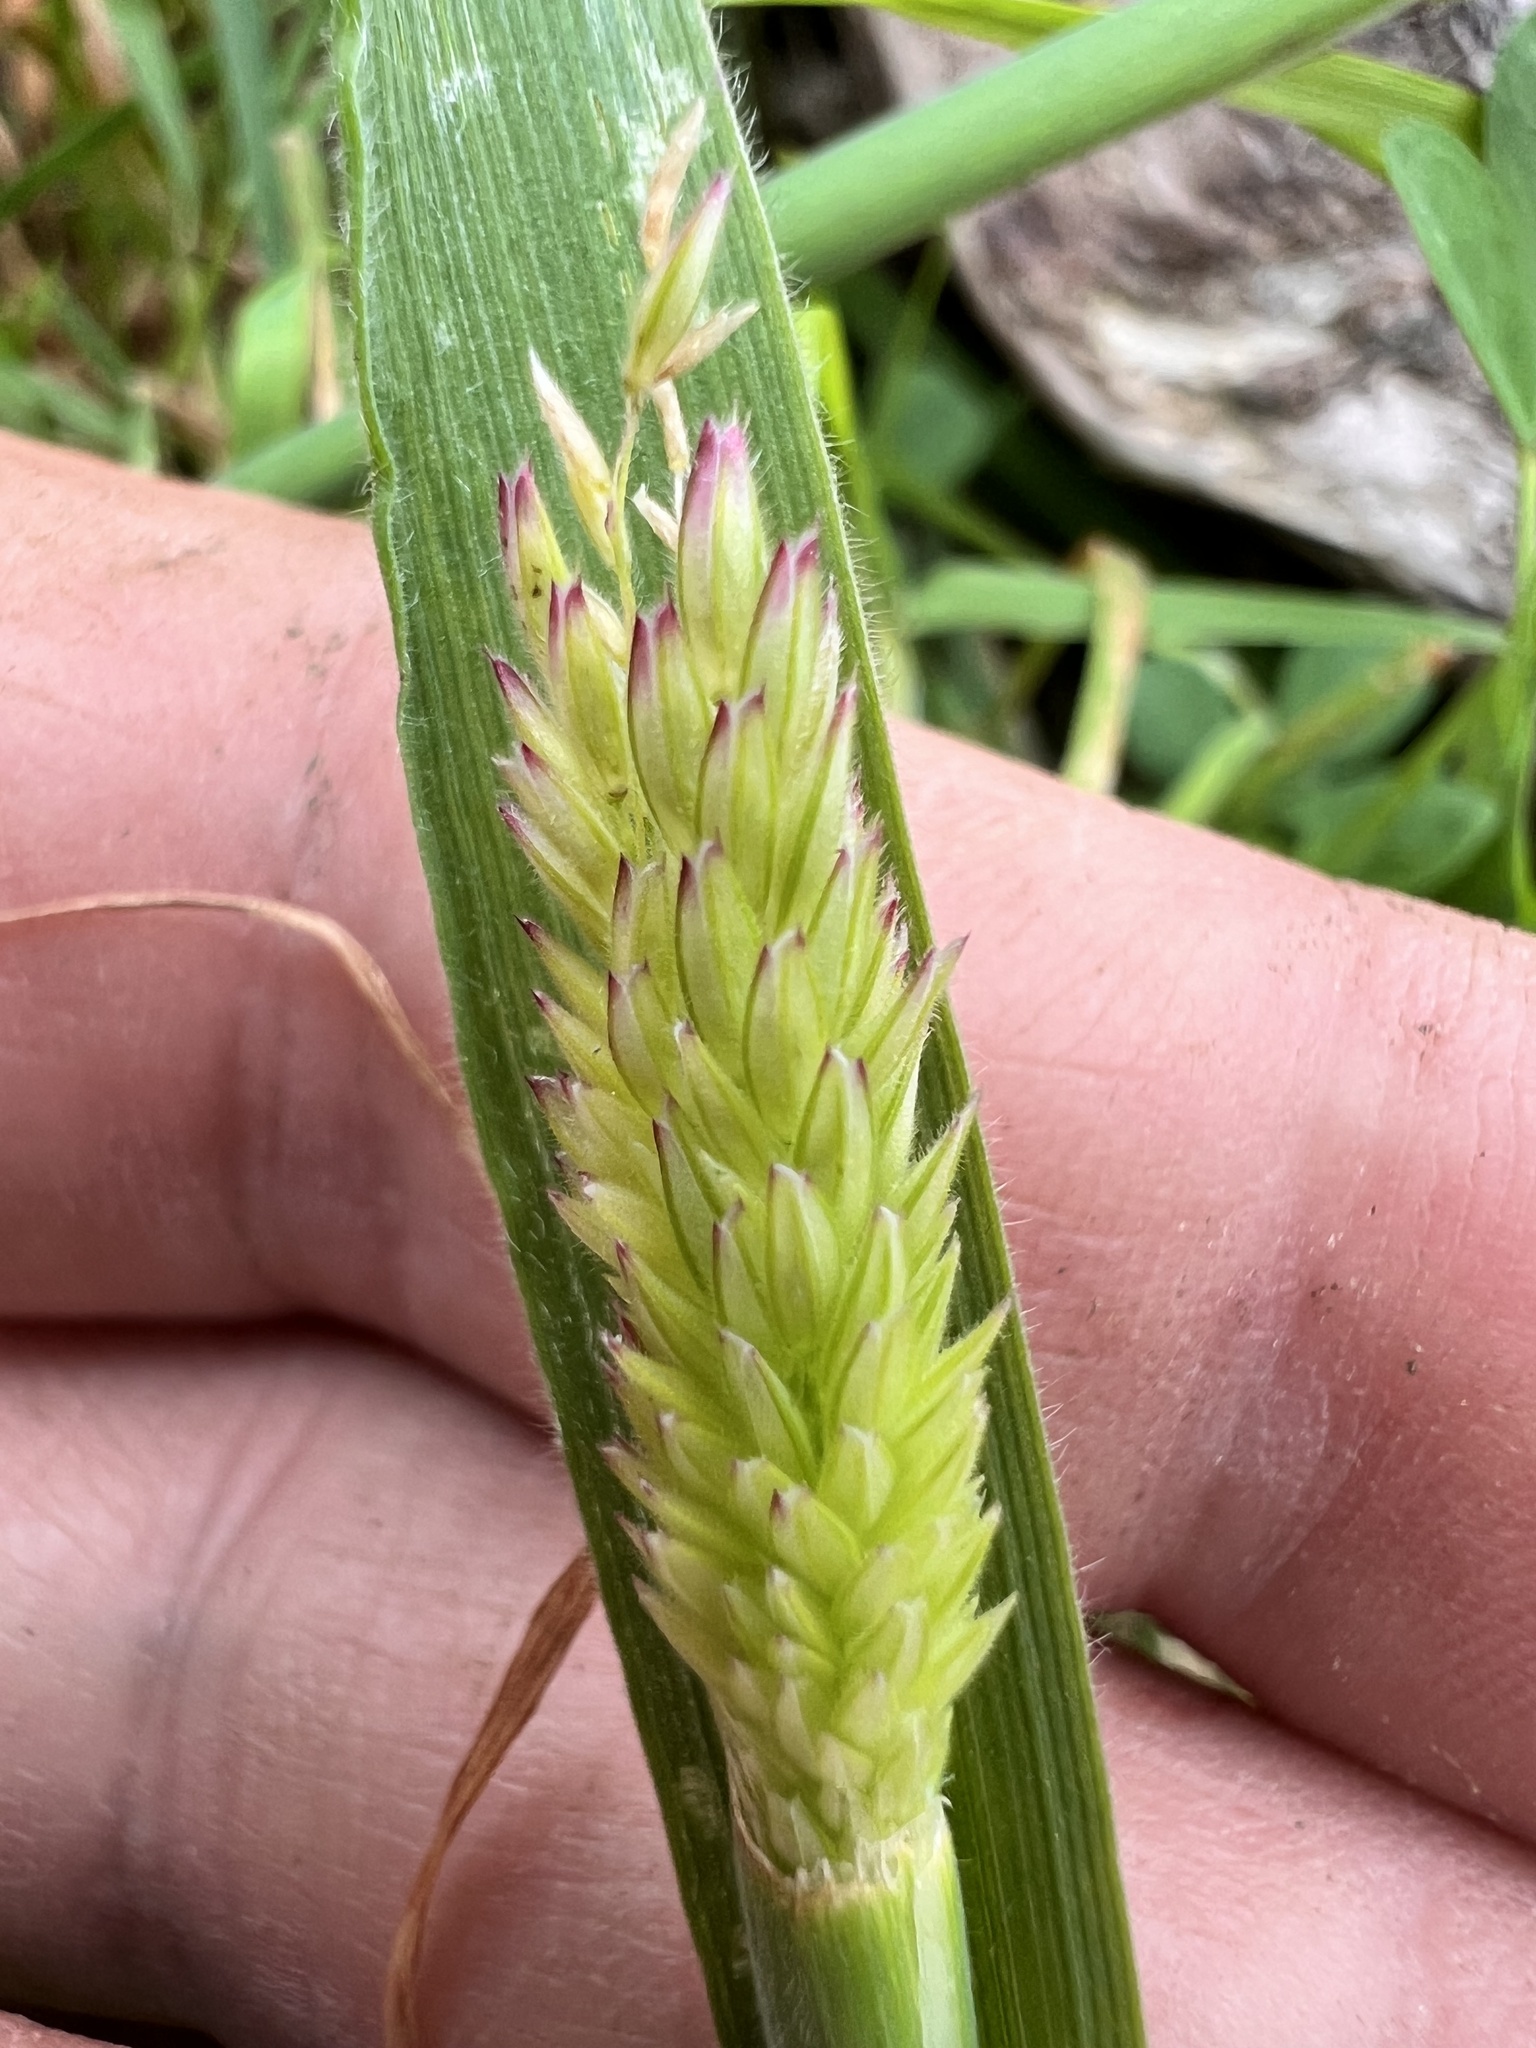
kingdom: Plantae
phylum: Tracheophyta
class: Liliopsida
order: Poales
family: Poaceae
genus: Holcus
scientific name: Holcus lanatus
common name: Yorkshire-fog
